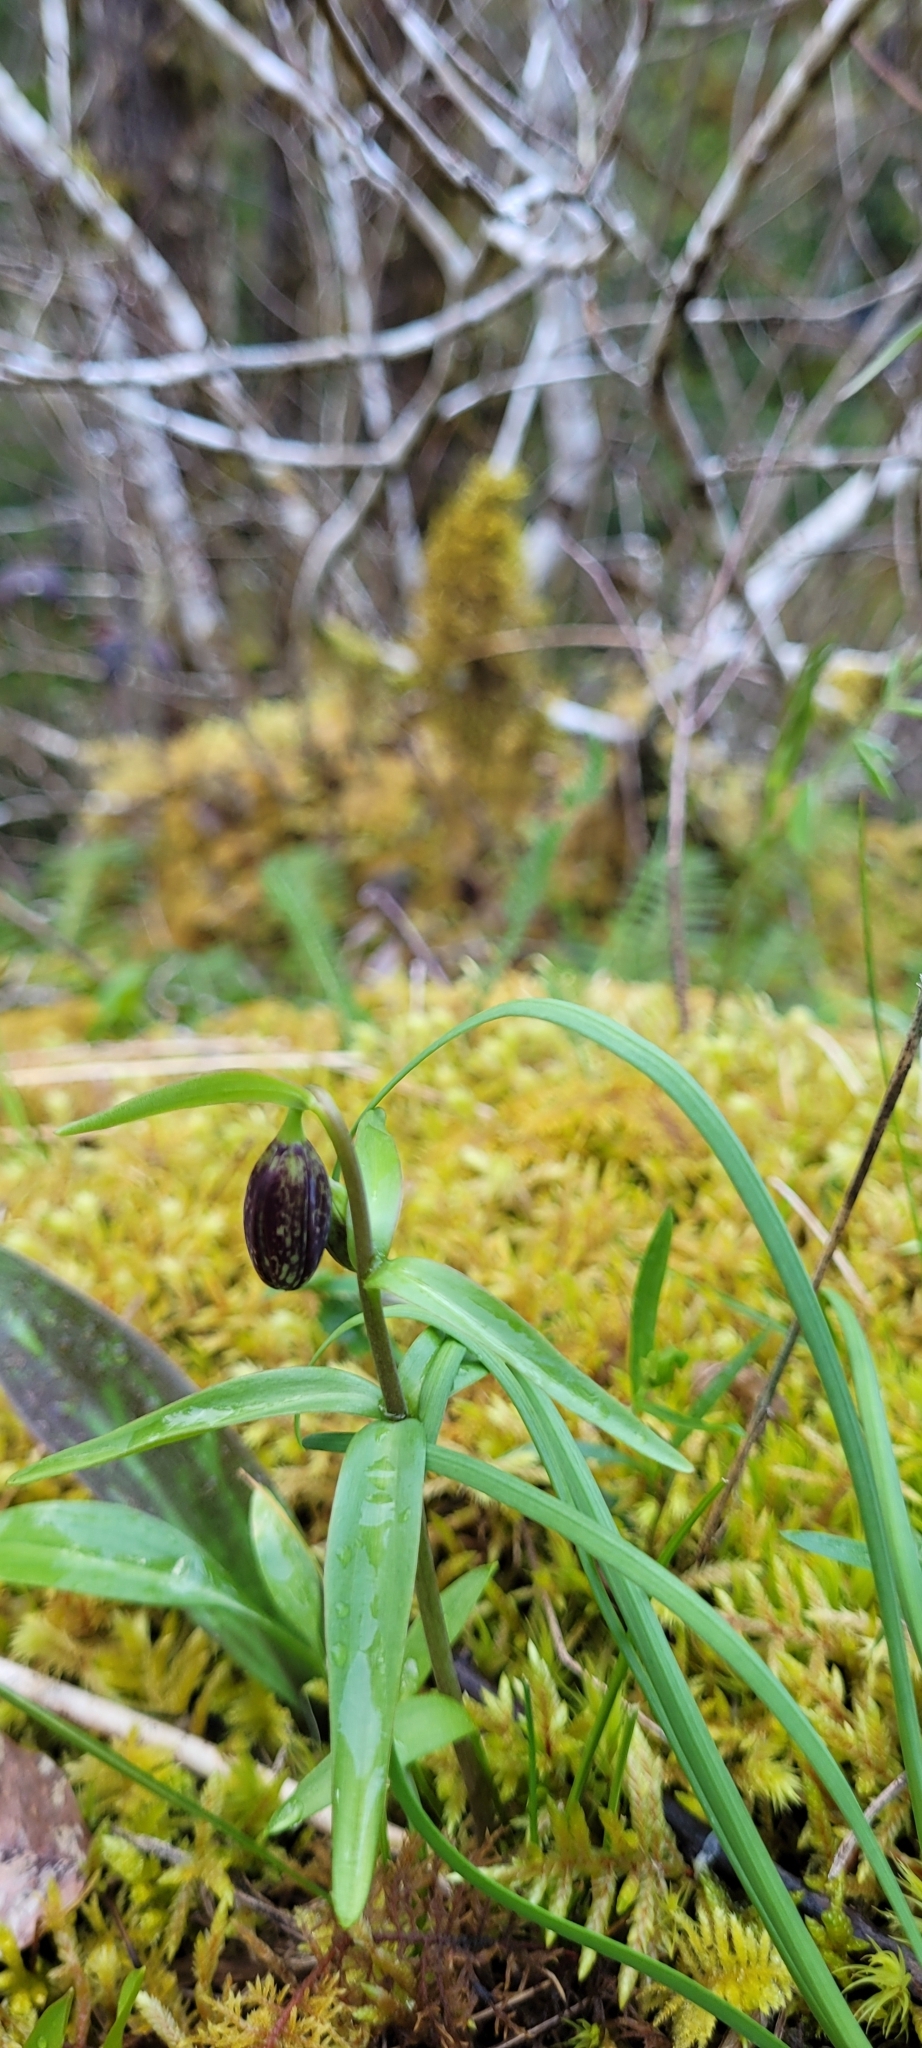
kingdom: Plantae
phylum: Tracheophyta
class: Liliopsida
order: Liliales
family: Liliaceae
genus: Fritillaria
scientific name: Fritillaria affinis
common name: Ojai fritillary
